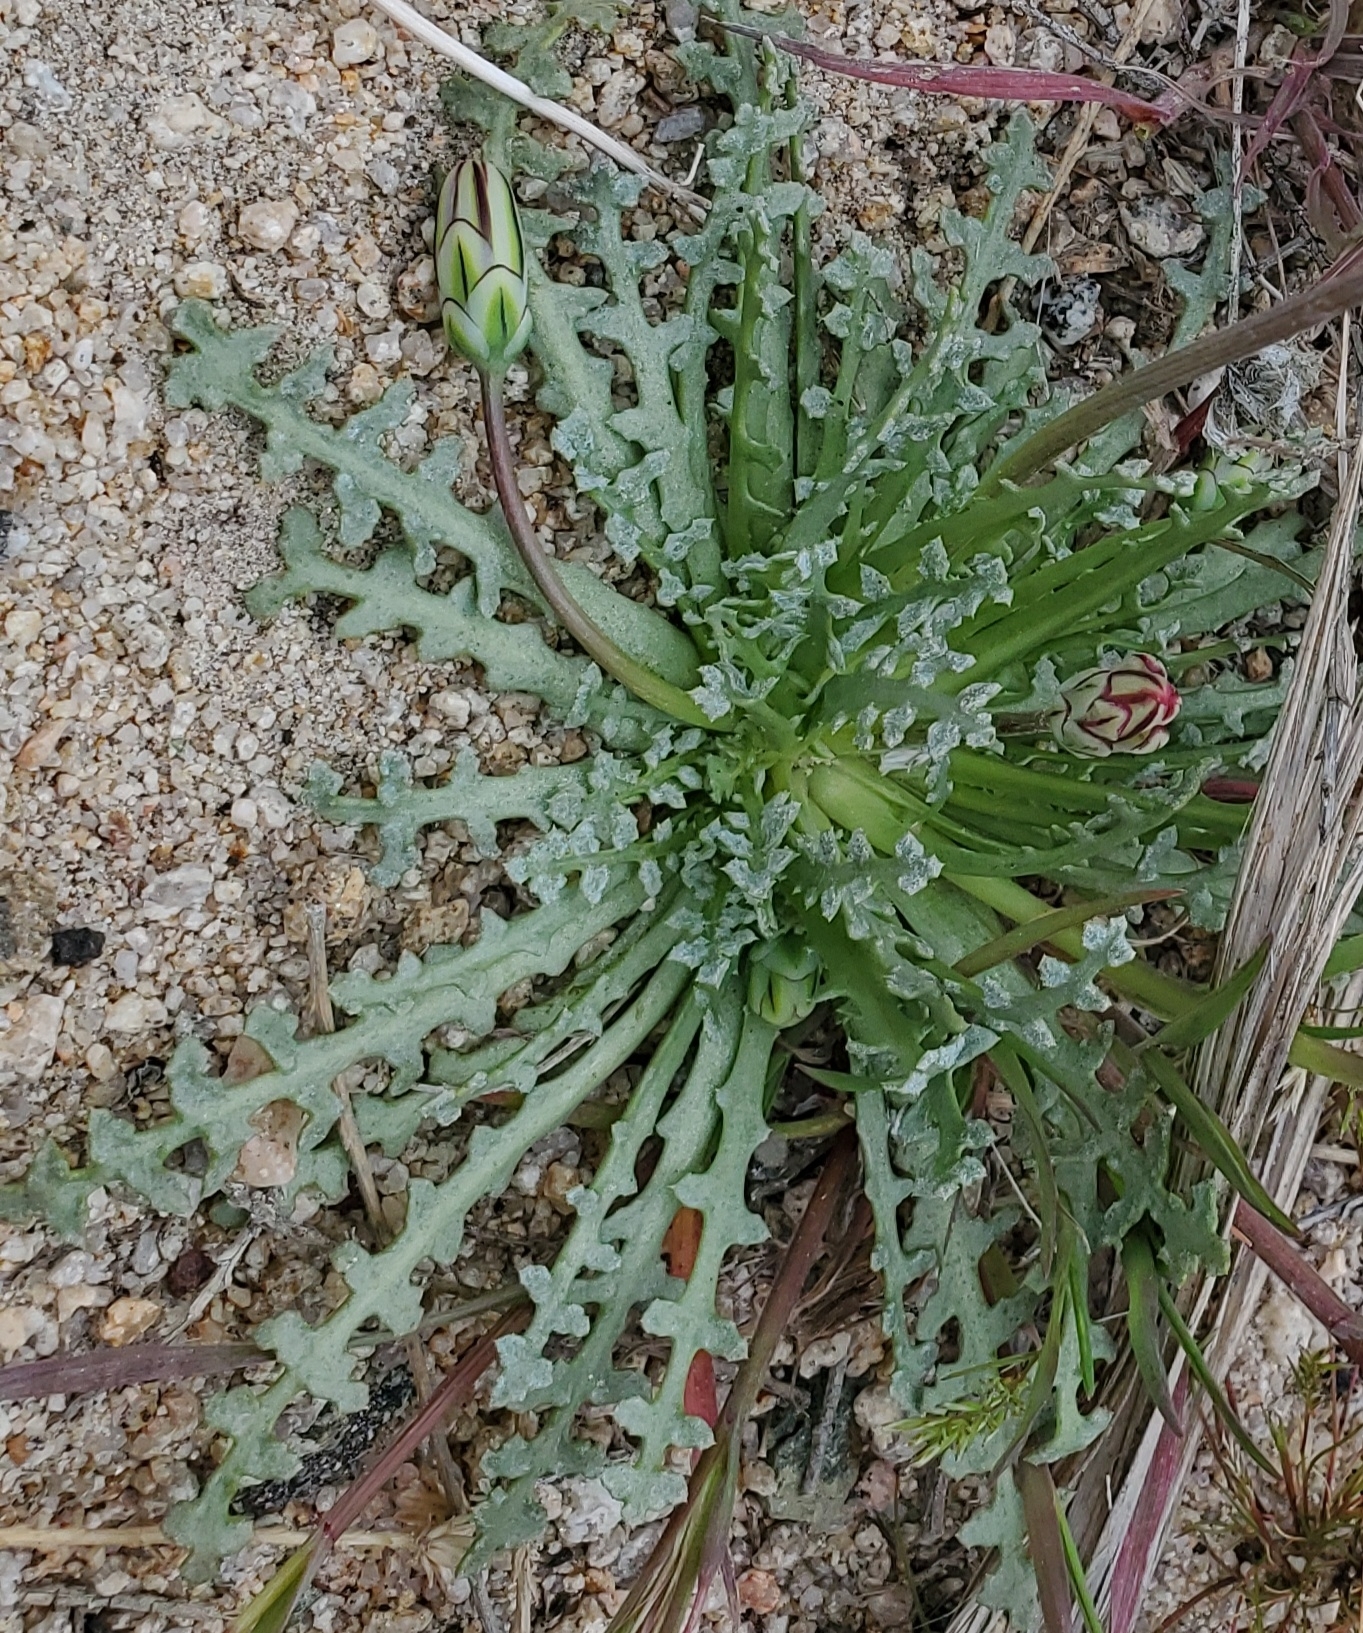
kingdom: Plantae
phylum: Tracheophyta
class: Magnoliopsida
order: Asterales
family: Asteraceae
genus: Anisocoma
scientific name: Anisocoma acaulis
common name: Scalebud
